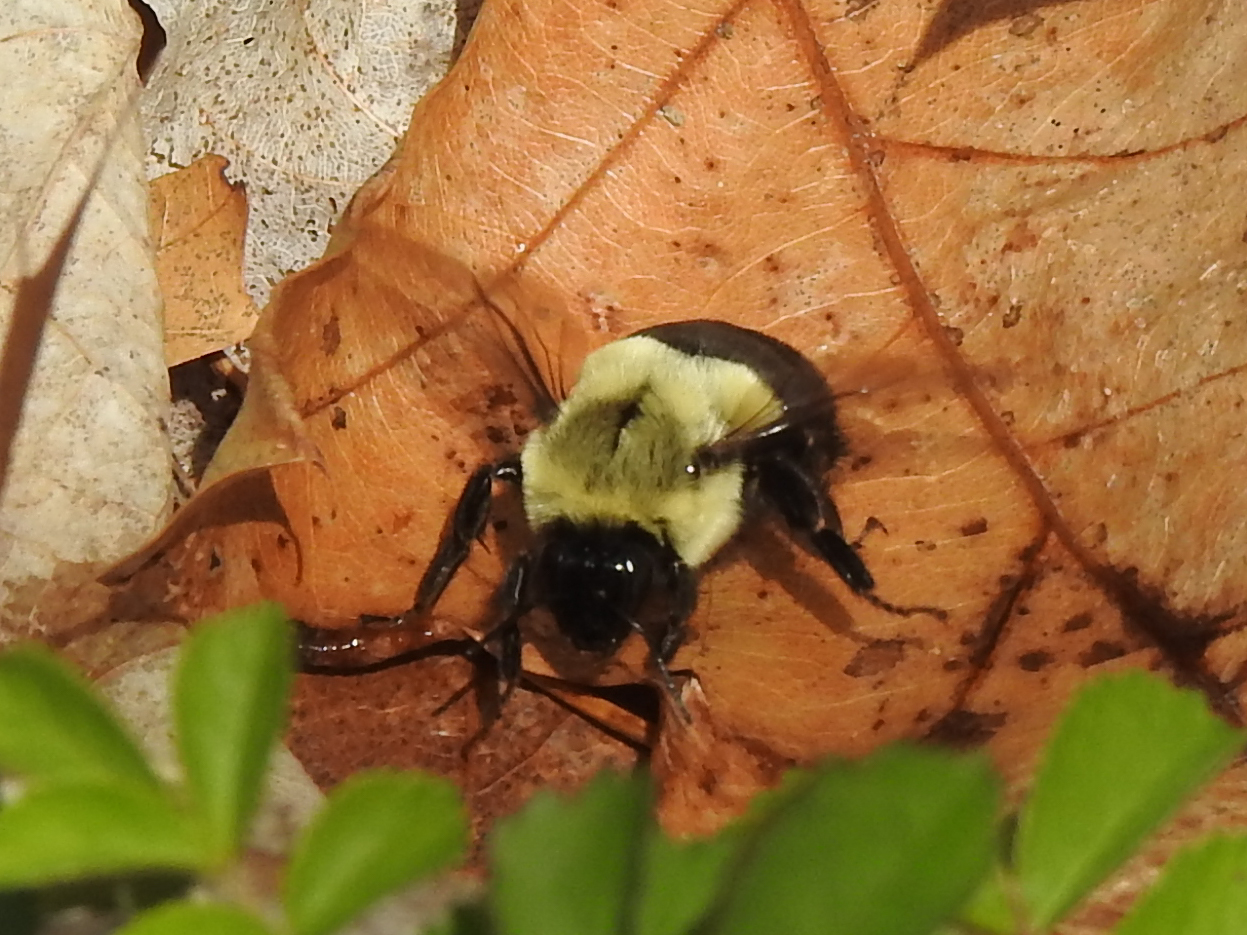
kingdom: Animalia
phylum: Arthropoda
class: Insecta
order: Hymenoptera
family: Apidae
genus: Bombus
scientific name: Bombus impatiens
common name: Common eastern bumble bee
